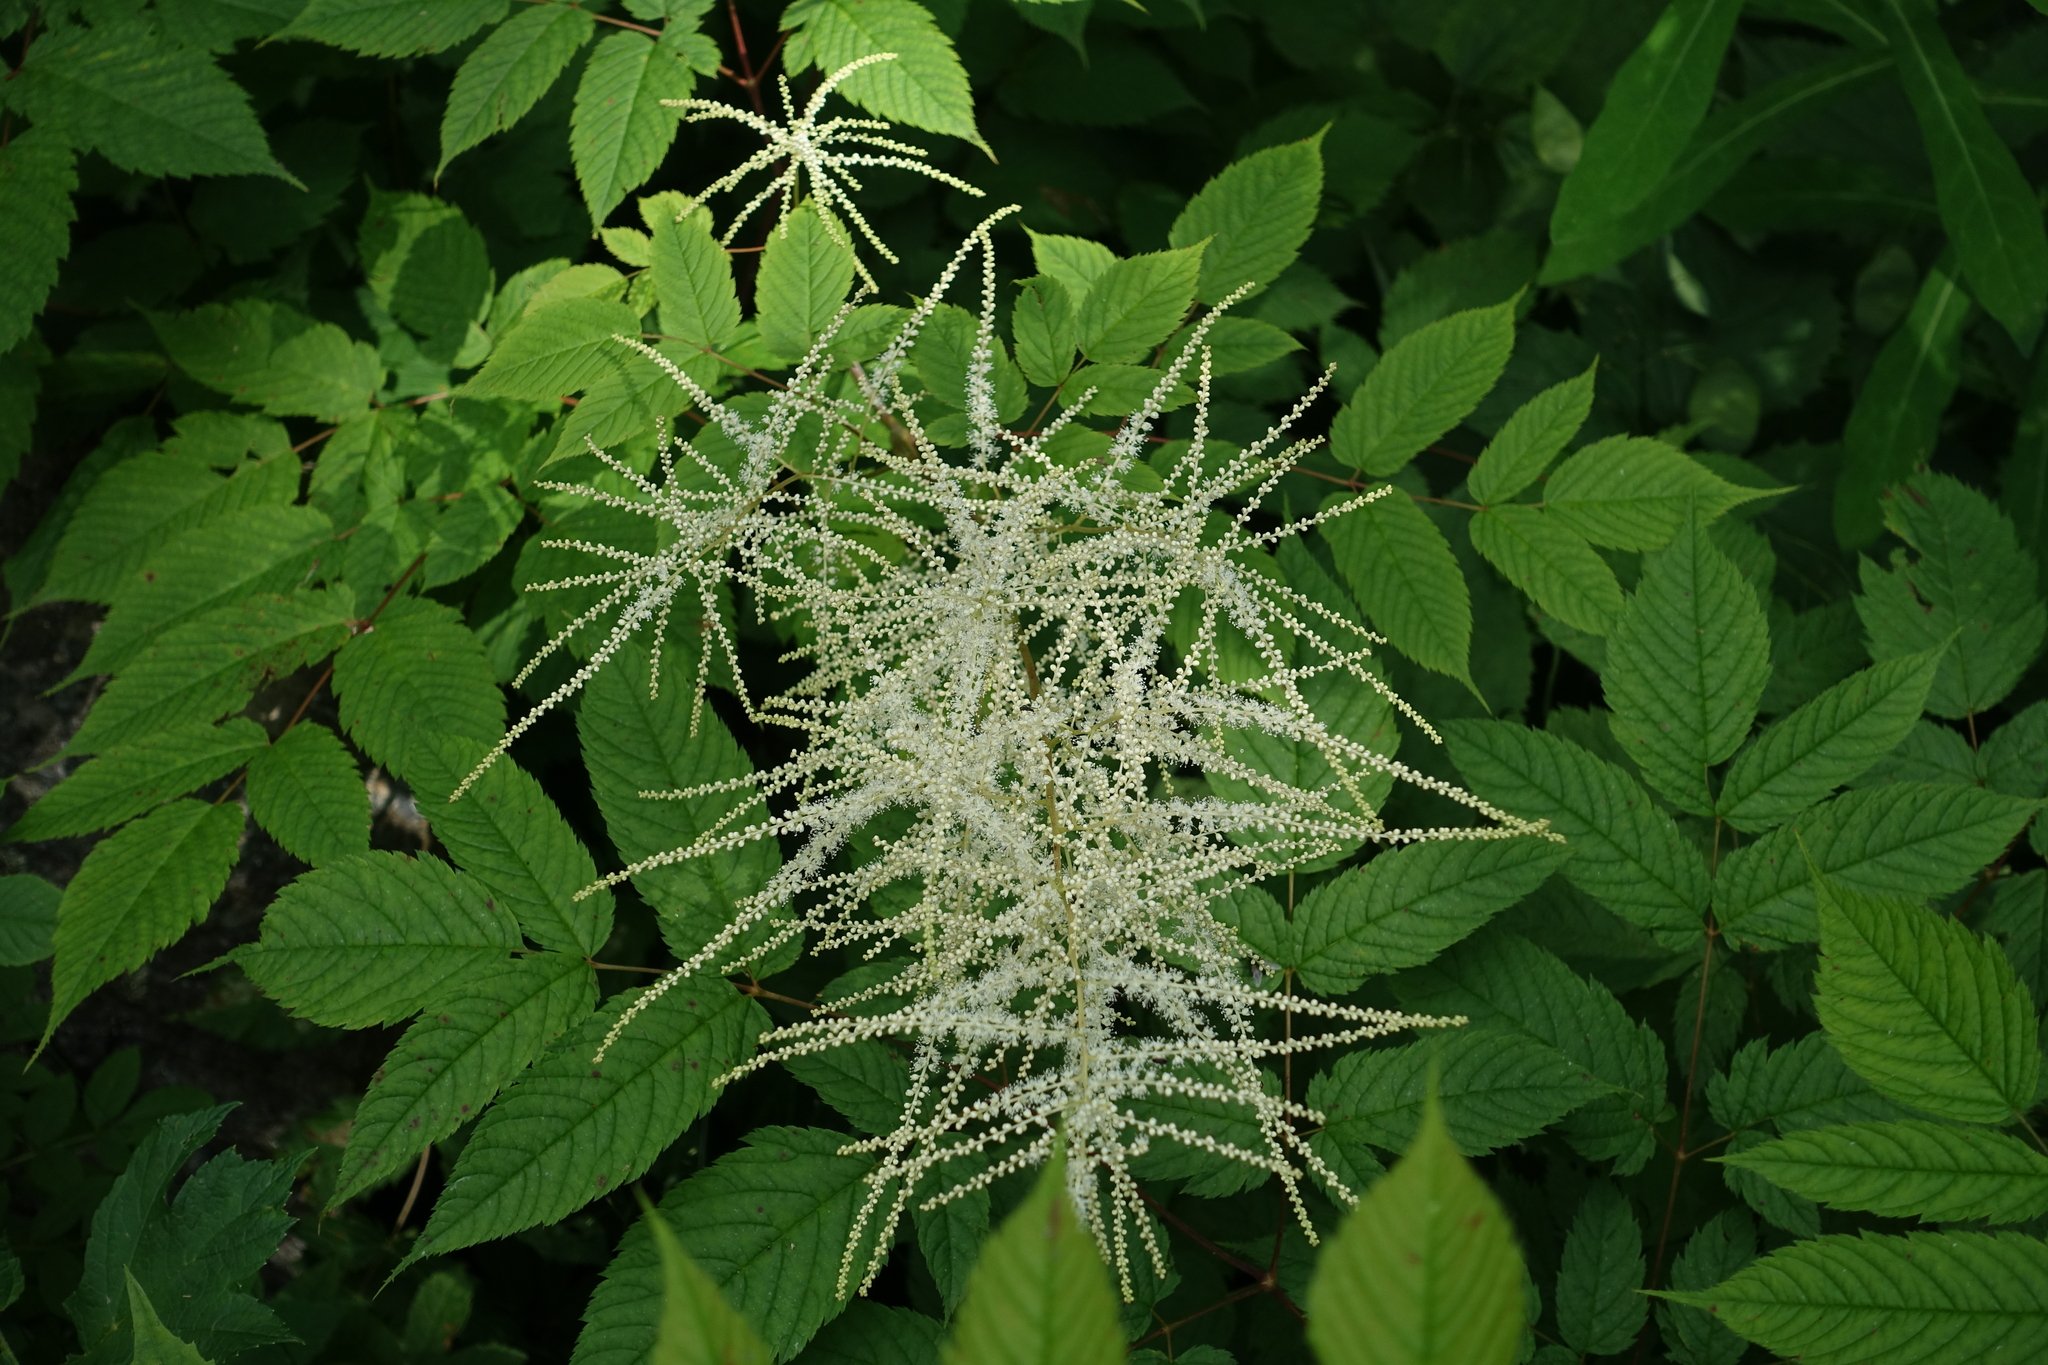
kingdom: Plantae
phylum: Tracheophyta
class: Magnoliopsida
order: Rosales
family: Rosaceae
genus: Aruncus
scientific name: Aruncus dioicus
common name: Buck's-beard
